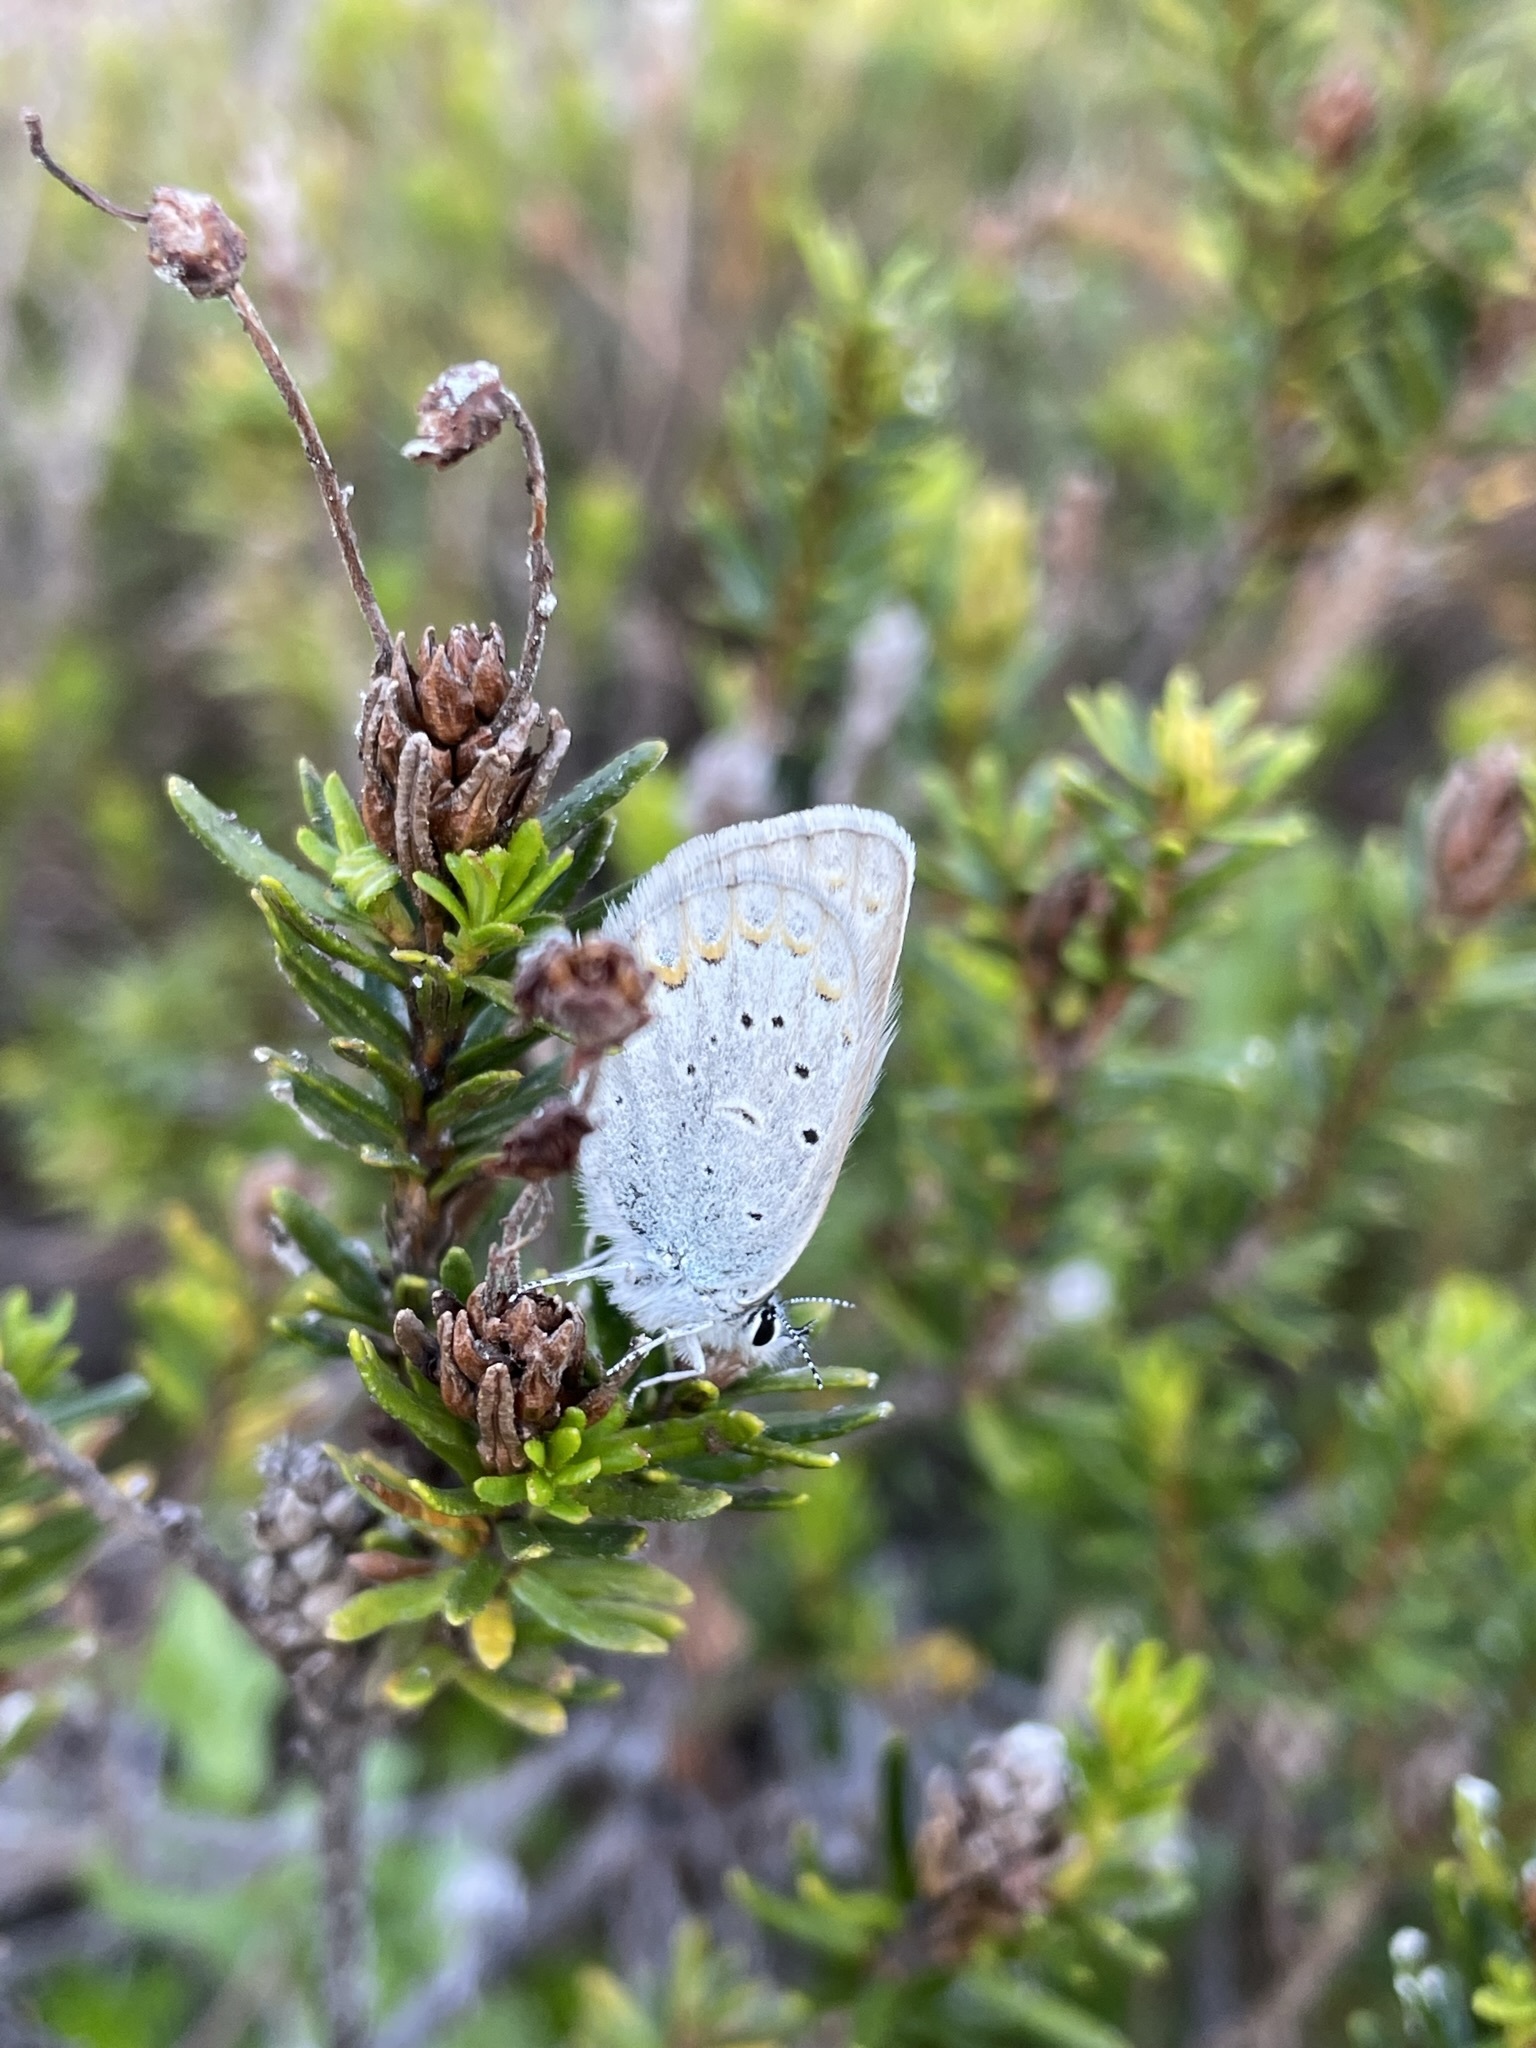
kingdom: Animalia
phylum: Arthropoda
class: Insecta
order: Lepidoptera
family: Lycaenidae
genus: Lycaeides
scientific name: Lycaeides anna
